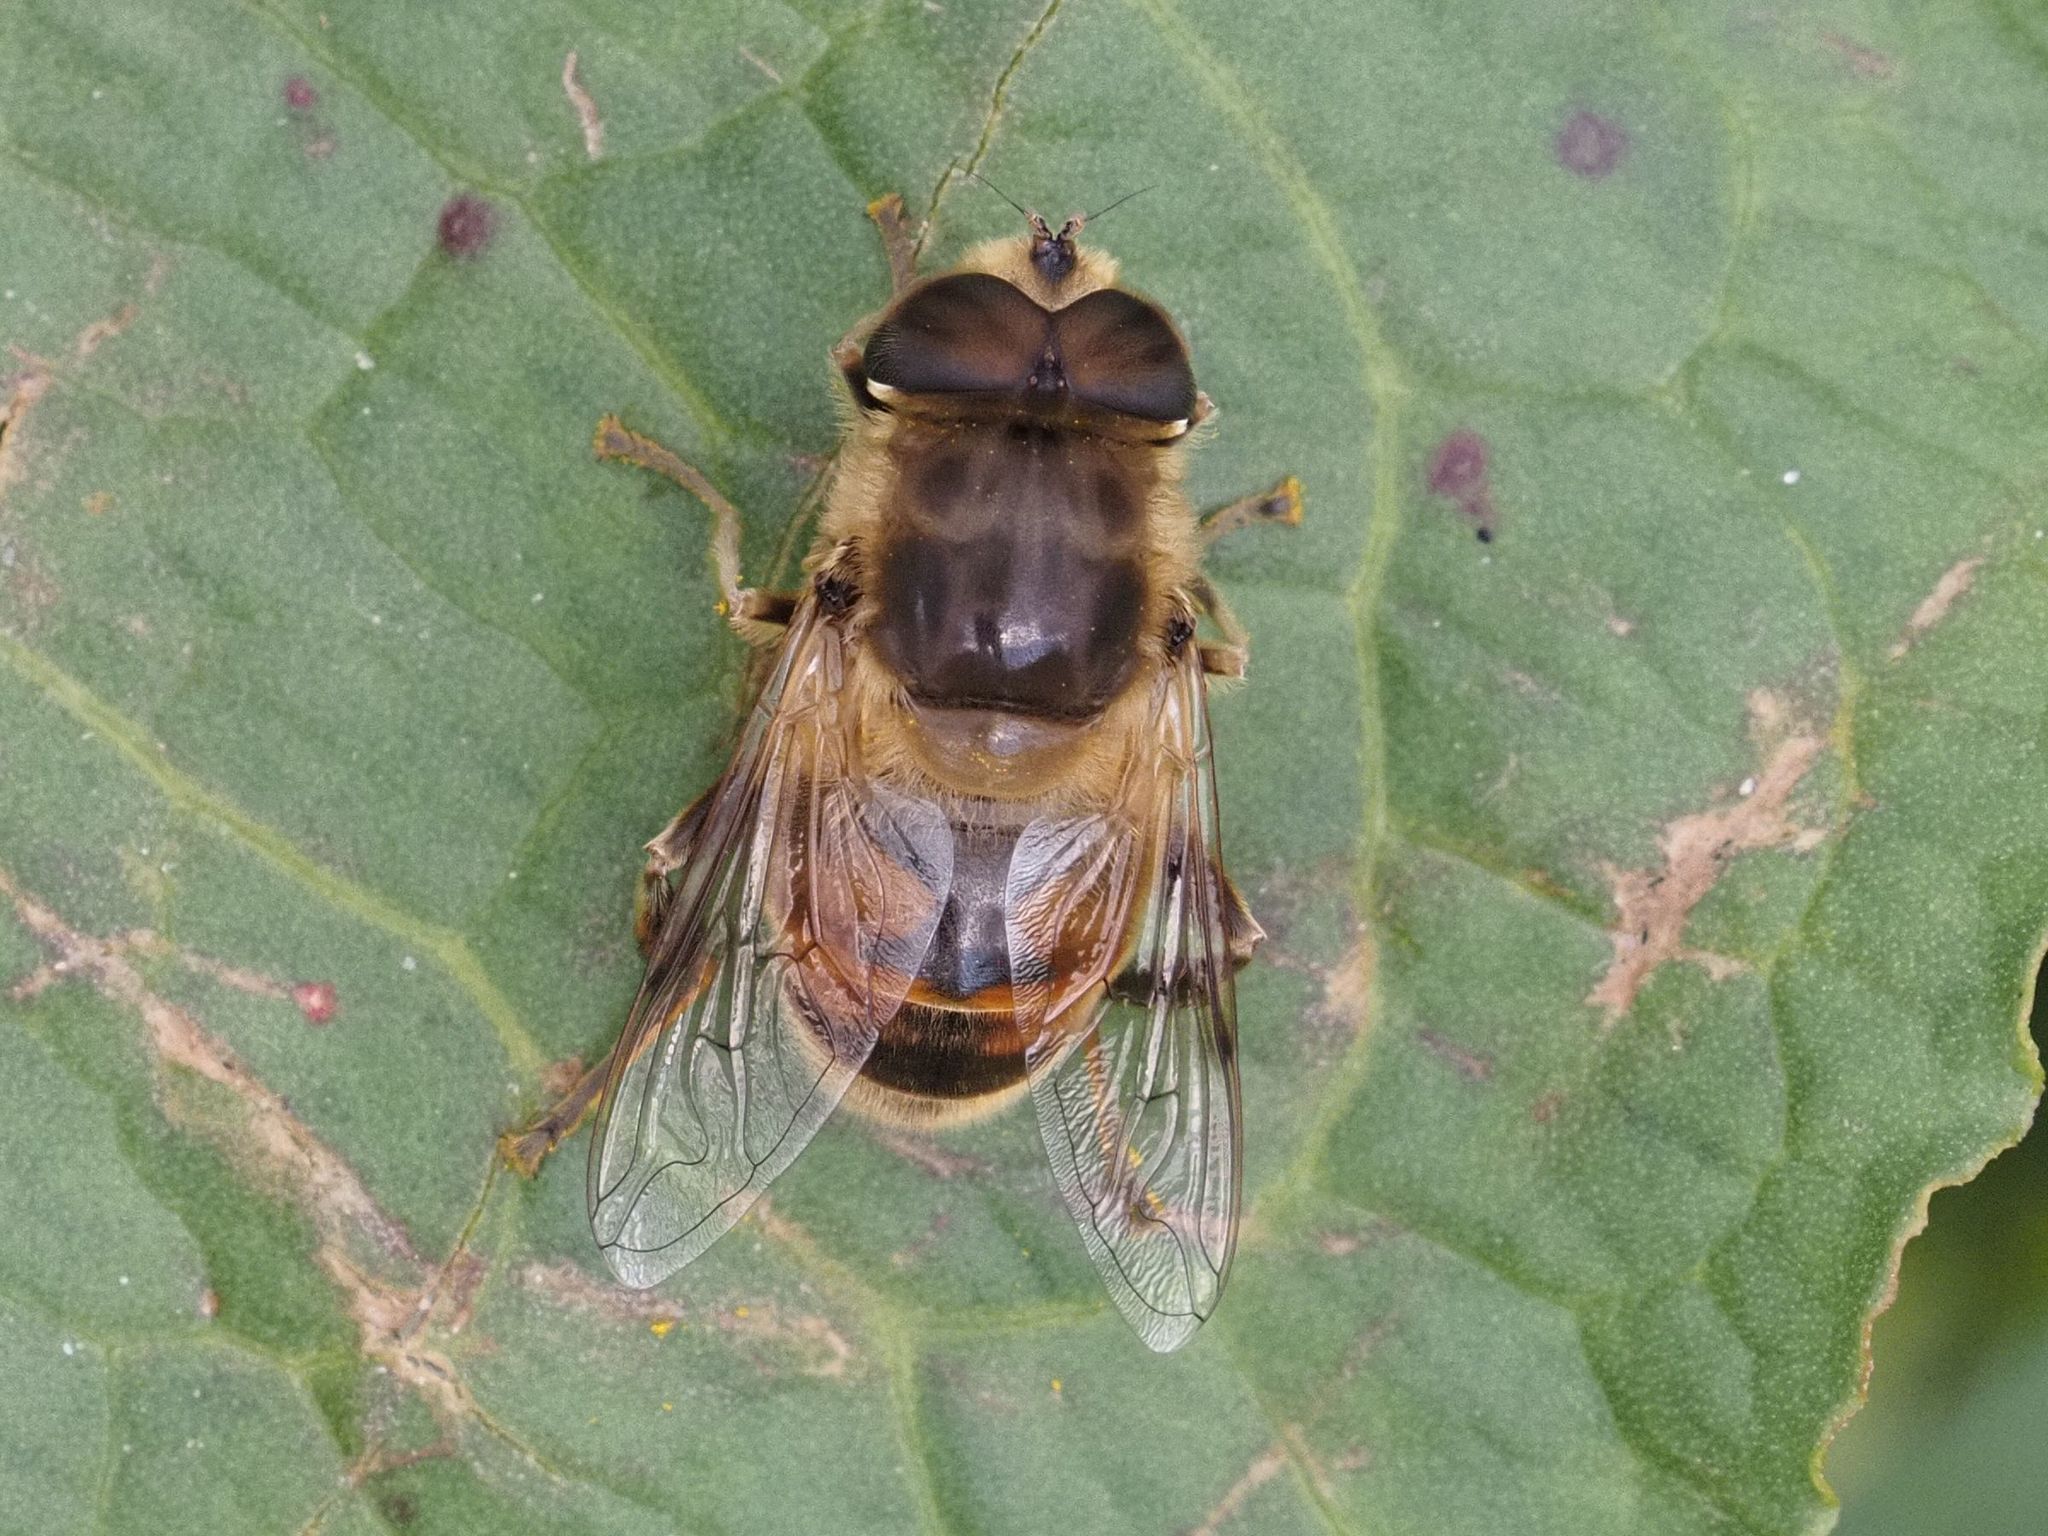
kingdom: Animalia
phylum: Arthropoda
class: Insecta
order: Diptera
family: Syrphidae
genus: Eristalis
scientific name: Eristalis tenax
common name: Drone fly
